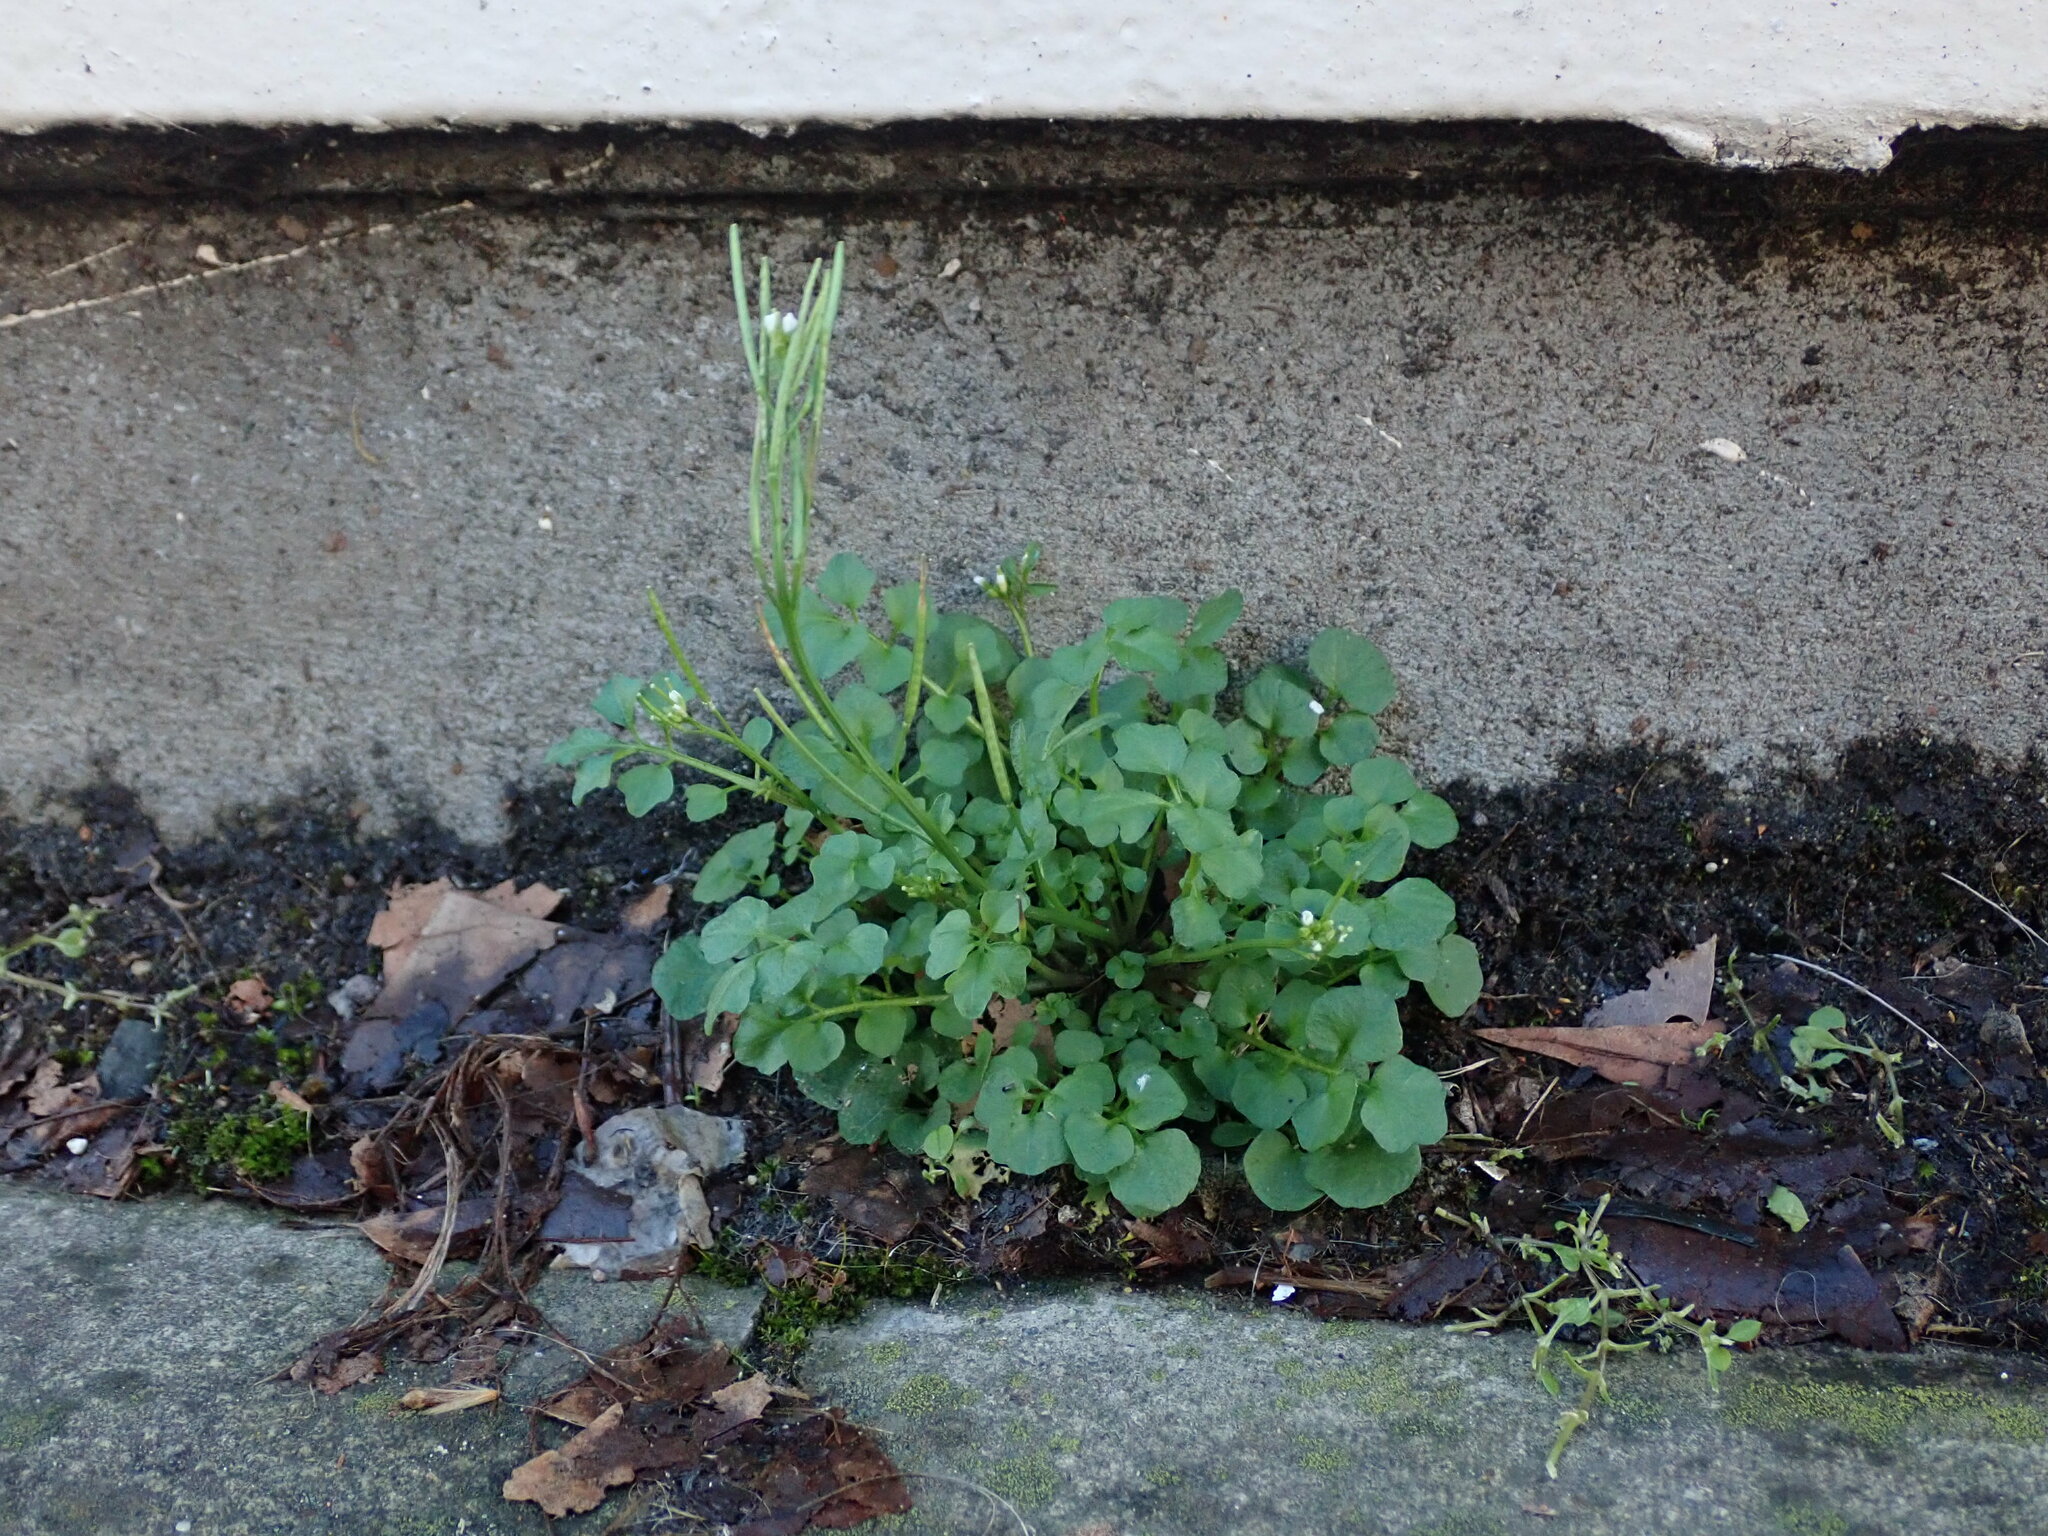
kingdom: Plantae
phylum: Tracheophyta
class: Magnoliopsida
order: Brassicales
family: Brassicaceae
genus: Cardamine
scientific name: Cardamine hirsuta
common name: Hairy bittercress
